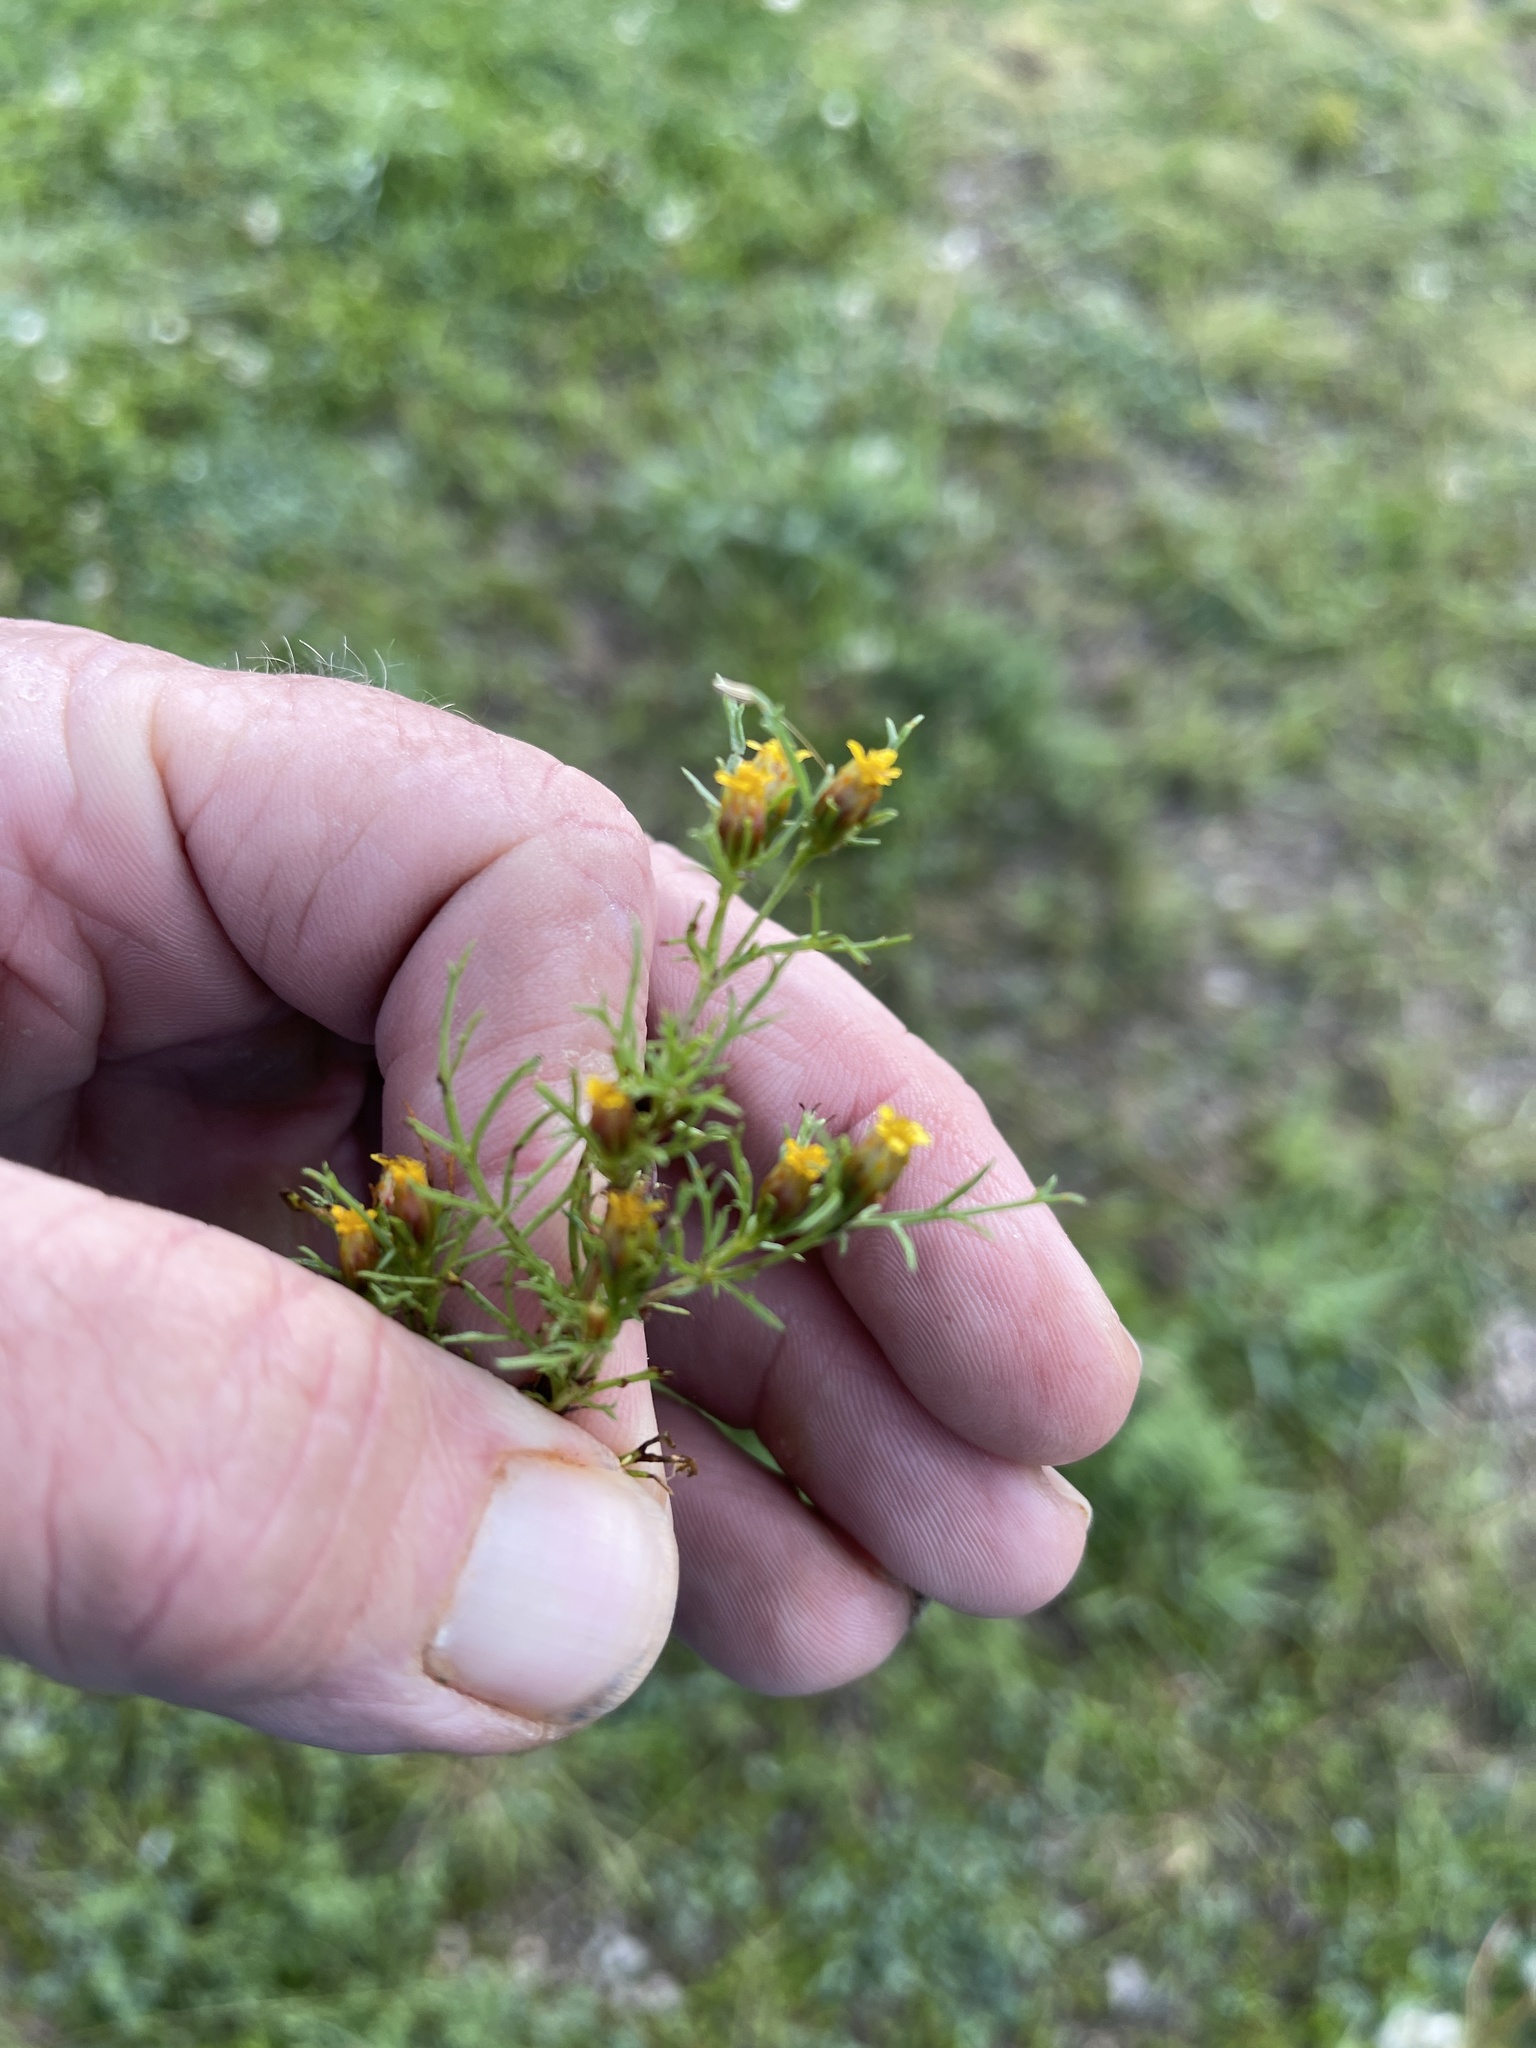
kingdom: Plantae
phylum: Tracheophyta
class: Magnoliopsida
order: Asterales
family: Asteraceae
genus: Dyssodia
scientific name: Dyssodia papposa
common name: Dogweed
